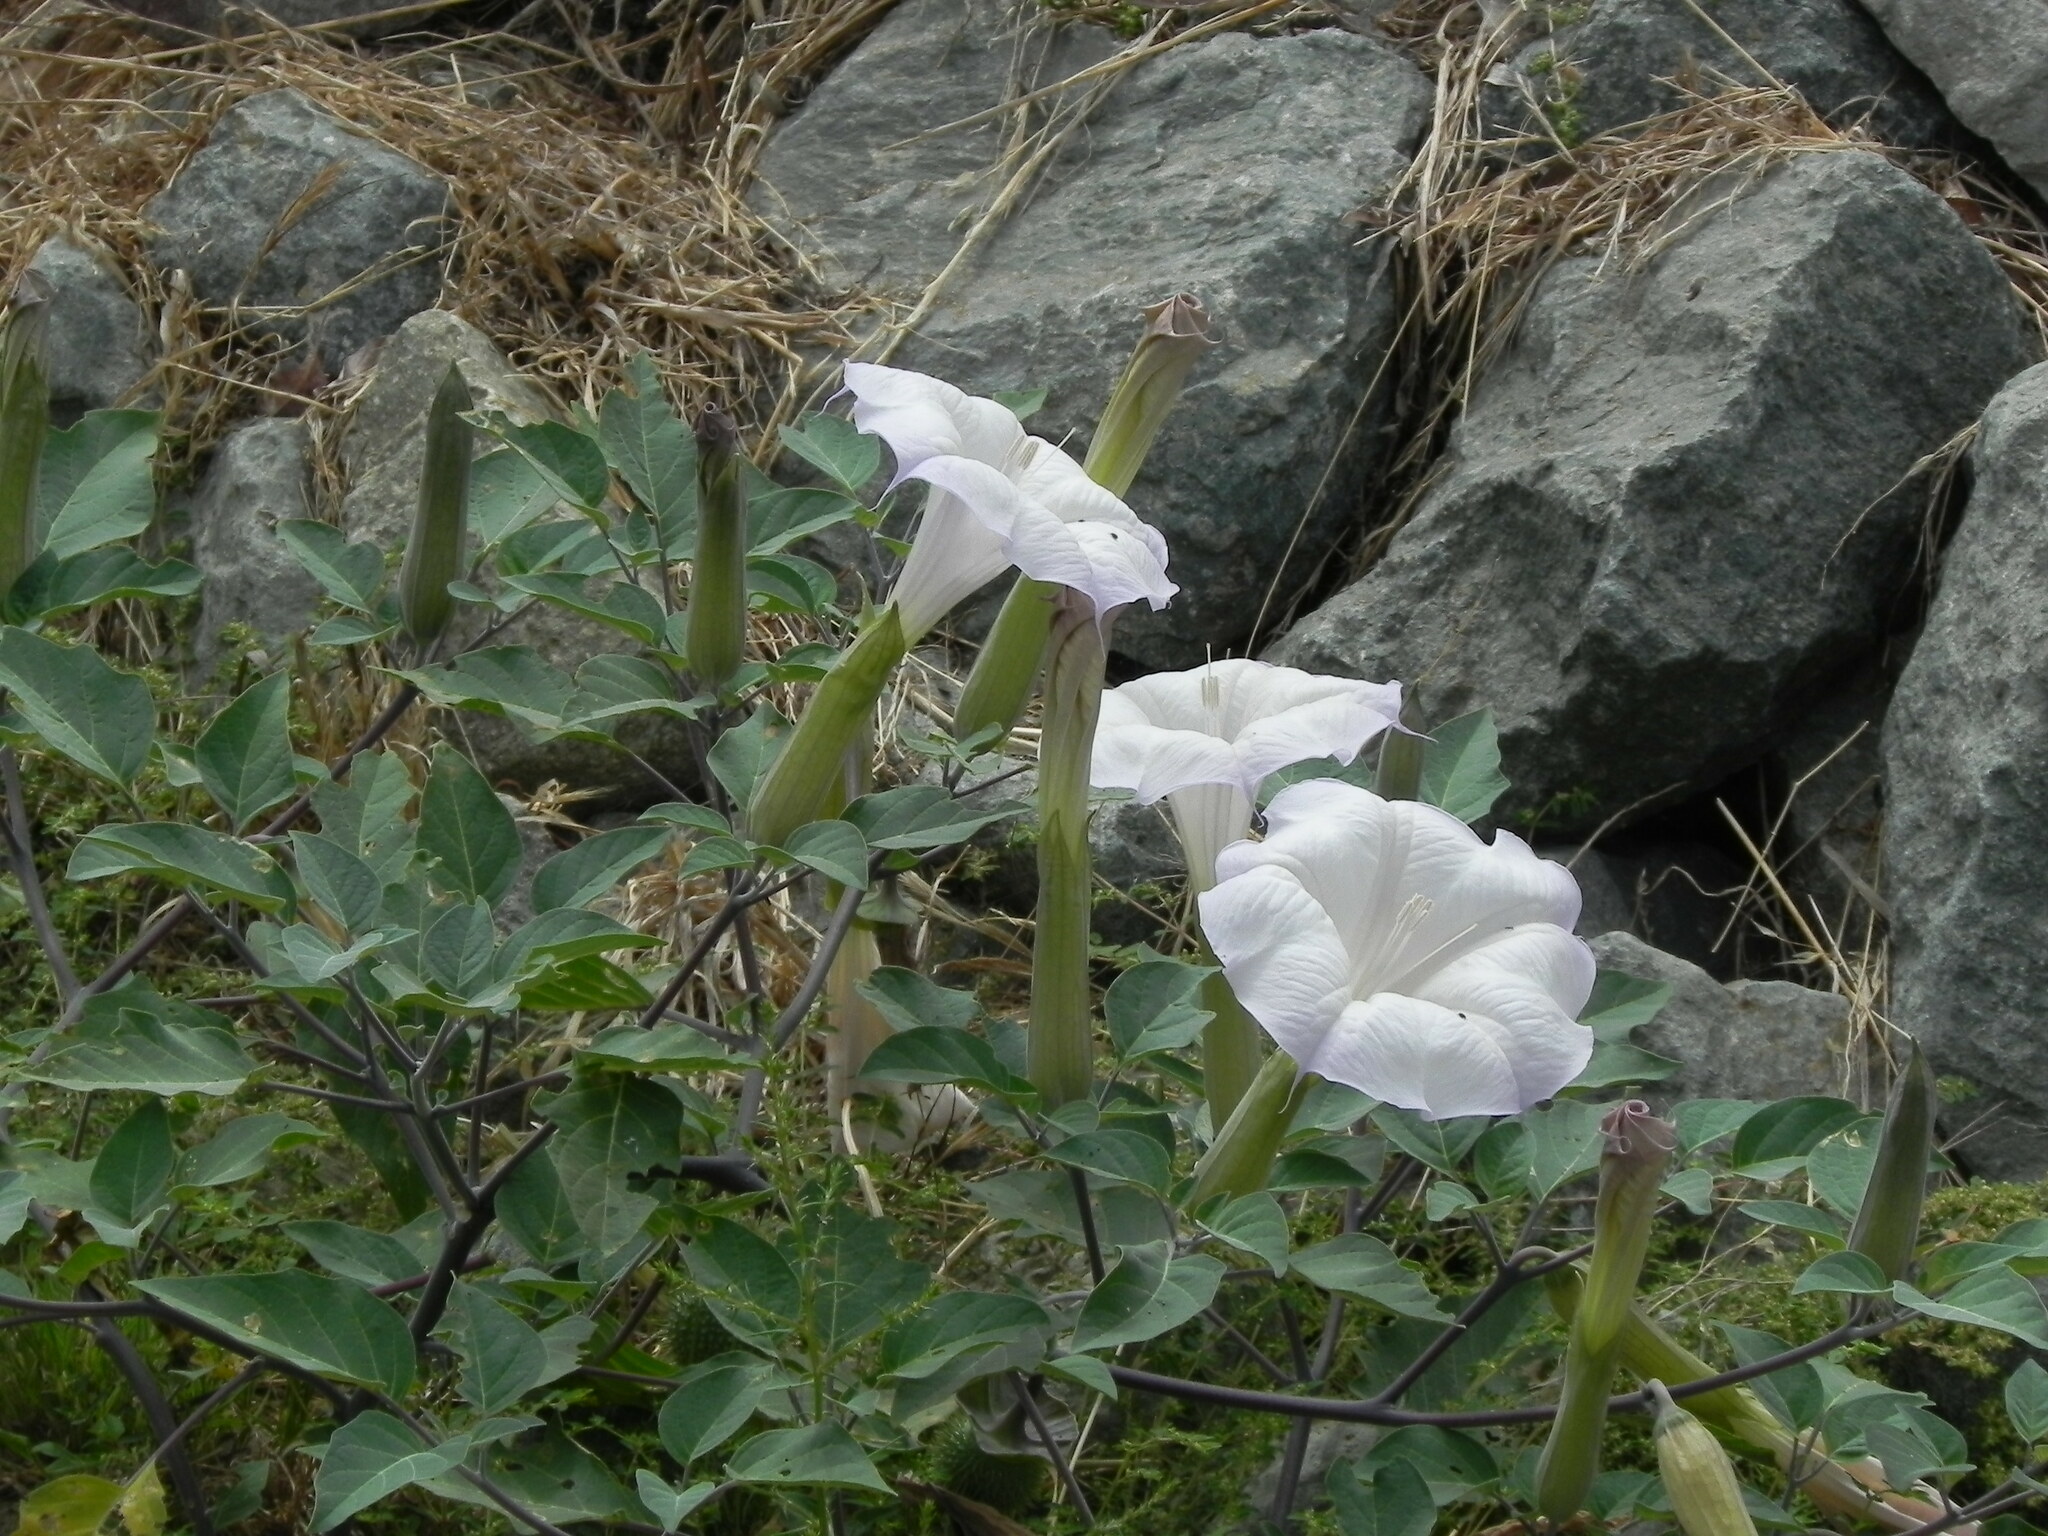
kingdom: Plantae
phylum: Tracheophyta
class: Magnoliopsida
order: Solanales
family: Solanaceae
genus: Datura
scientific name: Datura wrightii
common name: Sacred thorn-apple
